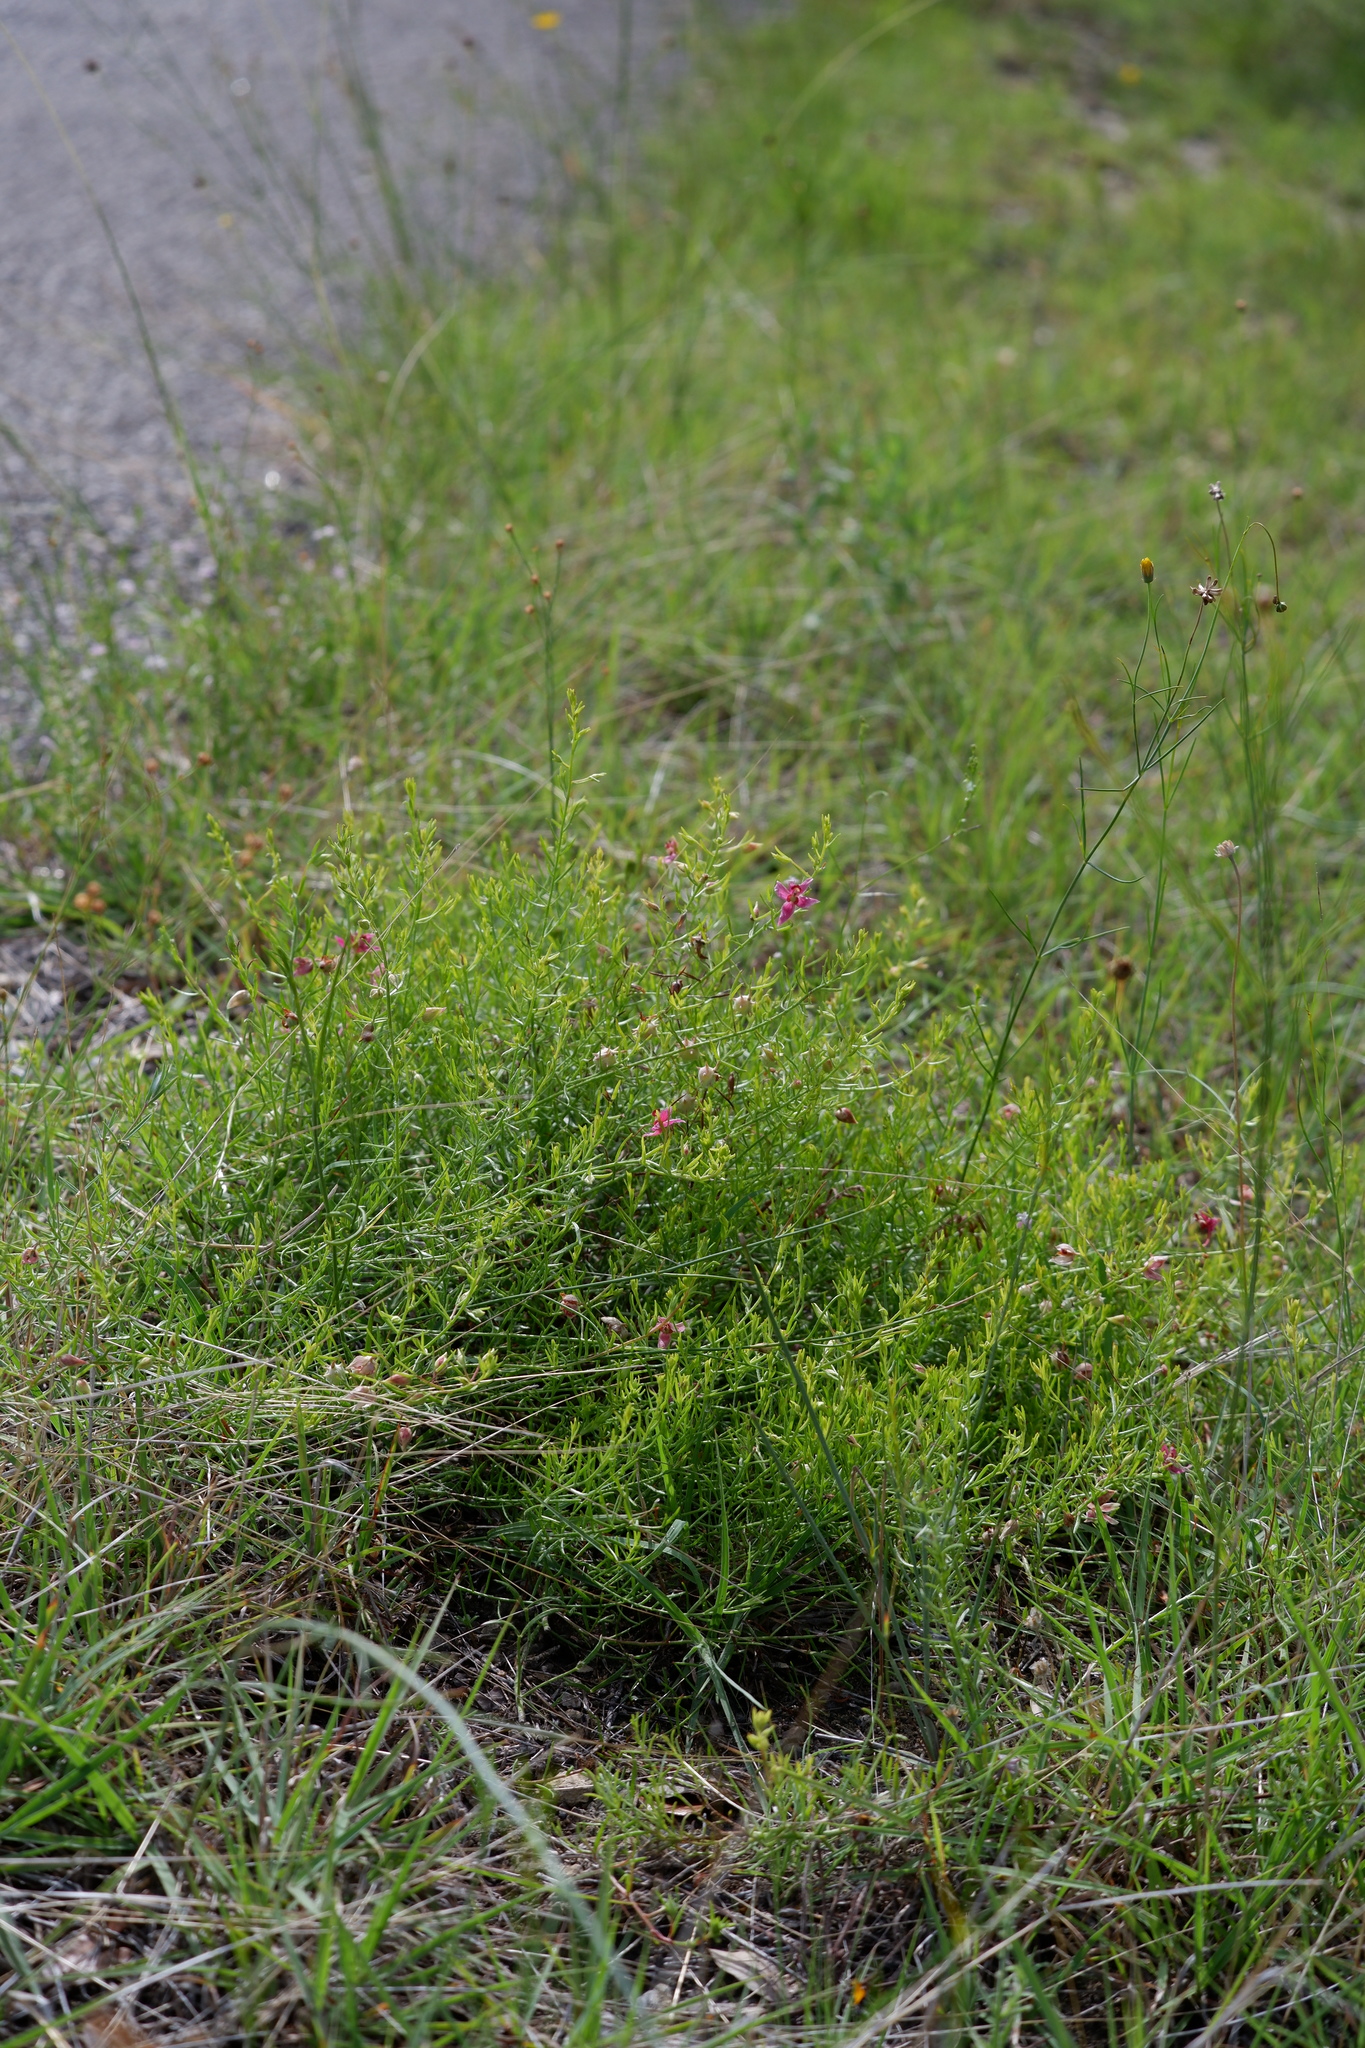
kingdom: Plantae
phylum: Tracheophyta
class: Magnoliopsida
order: Zygophyllales
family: Krameriaceae
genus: Krameria
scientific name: Krameria lanceolata
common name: Ratany
